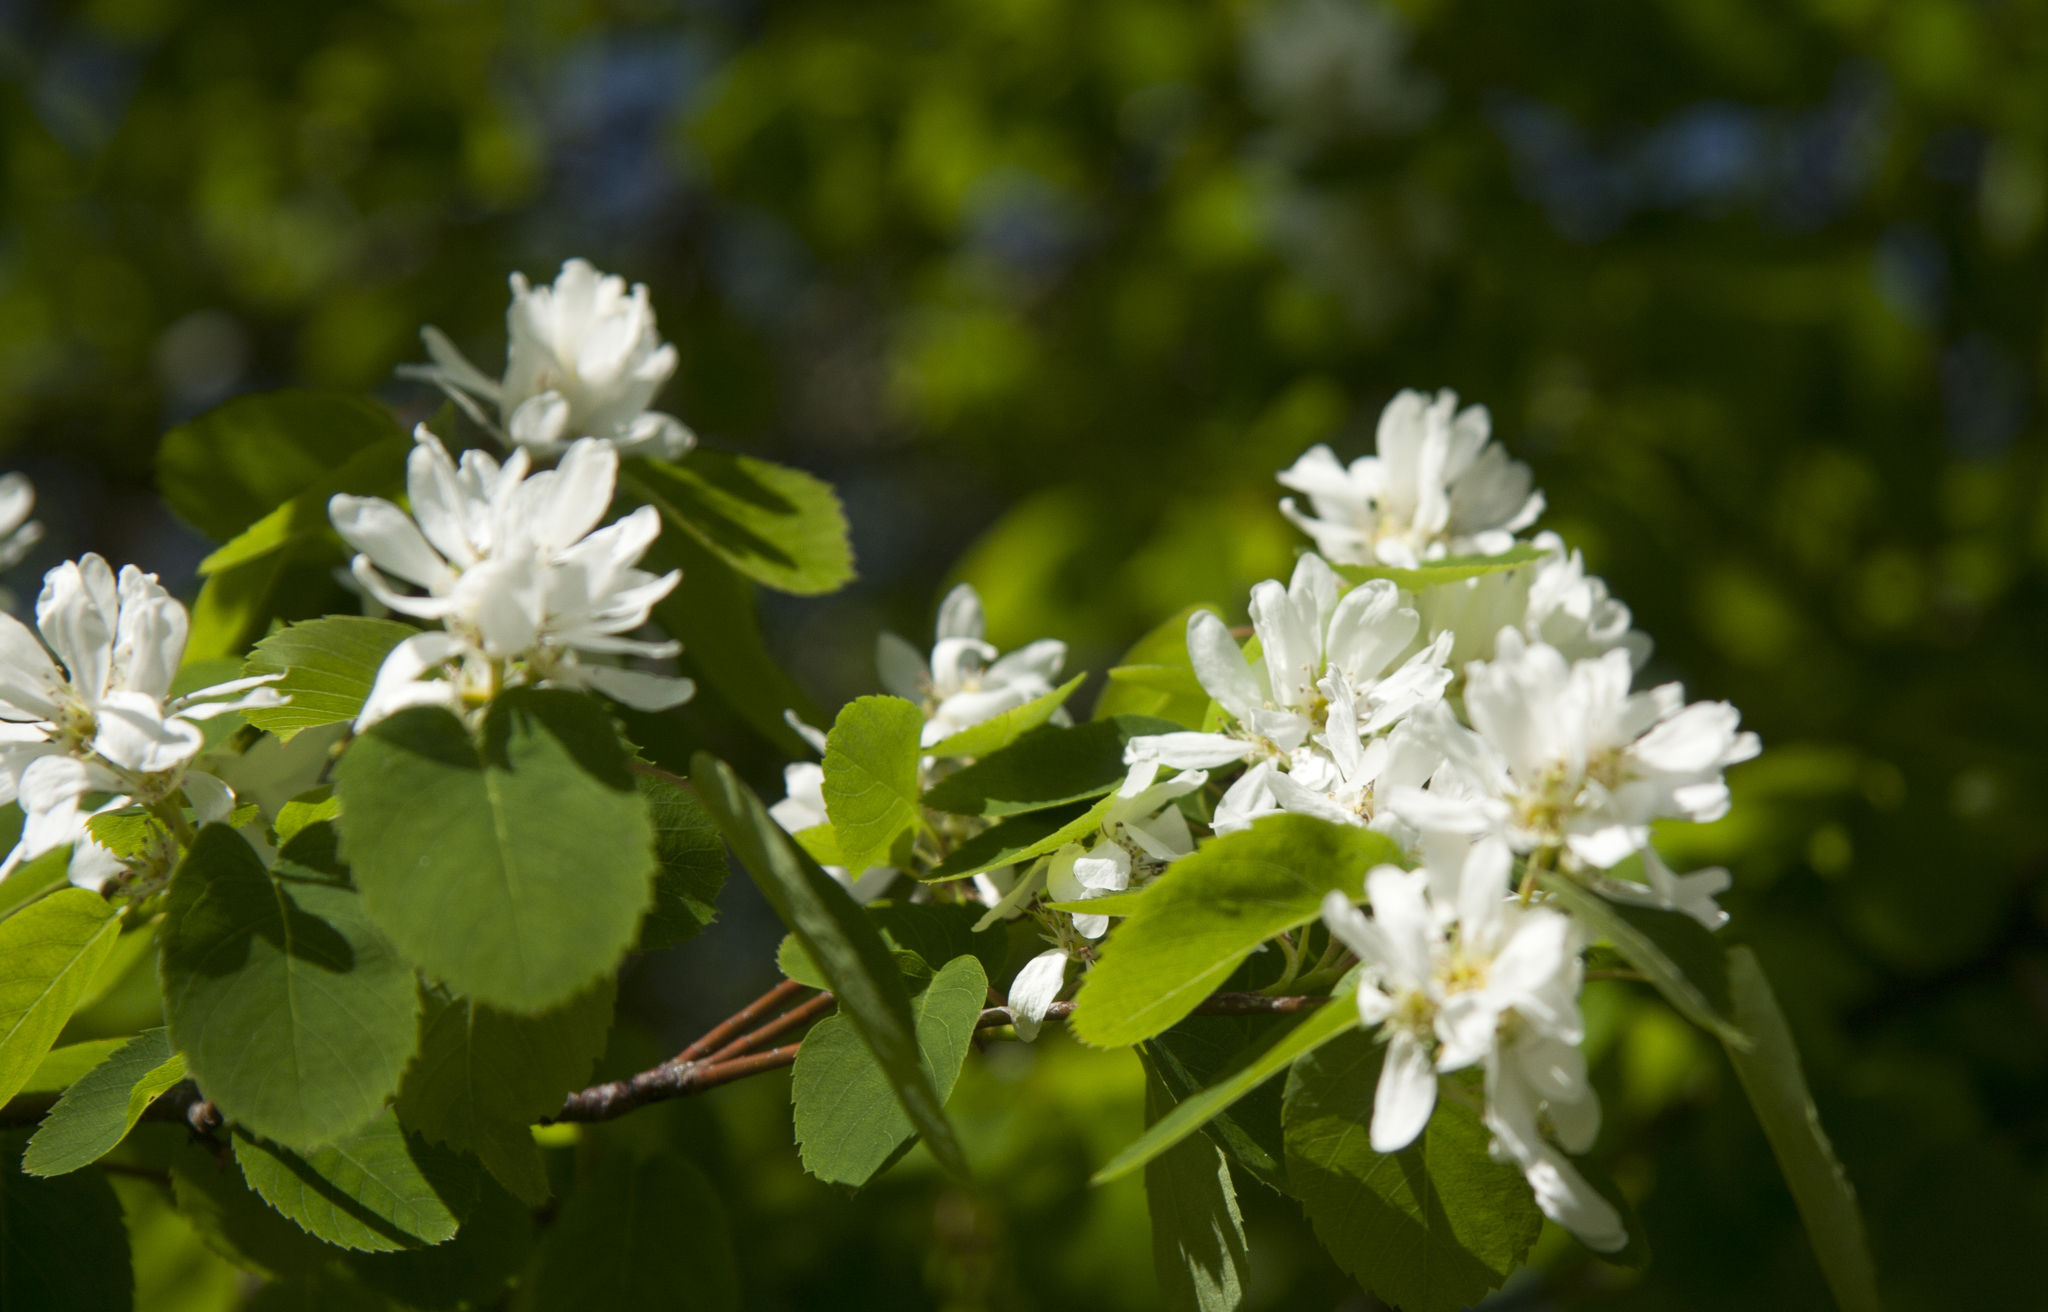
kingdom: Plantae
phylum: Tracheophyta
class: Magnoliopsida
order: Rosales
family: Rosaceae
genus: Amelanchier
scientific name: Amelanchier alnifolia
